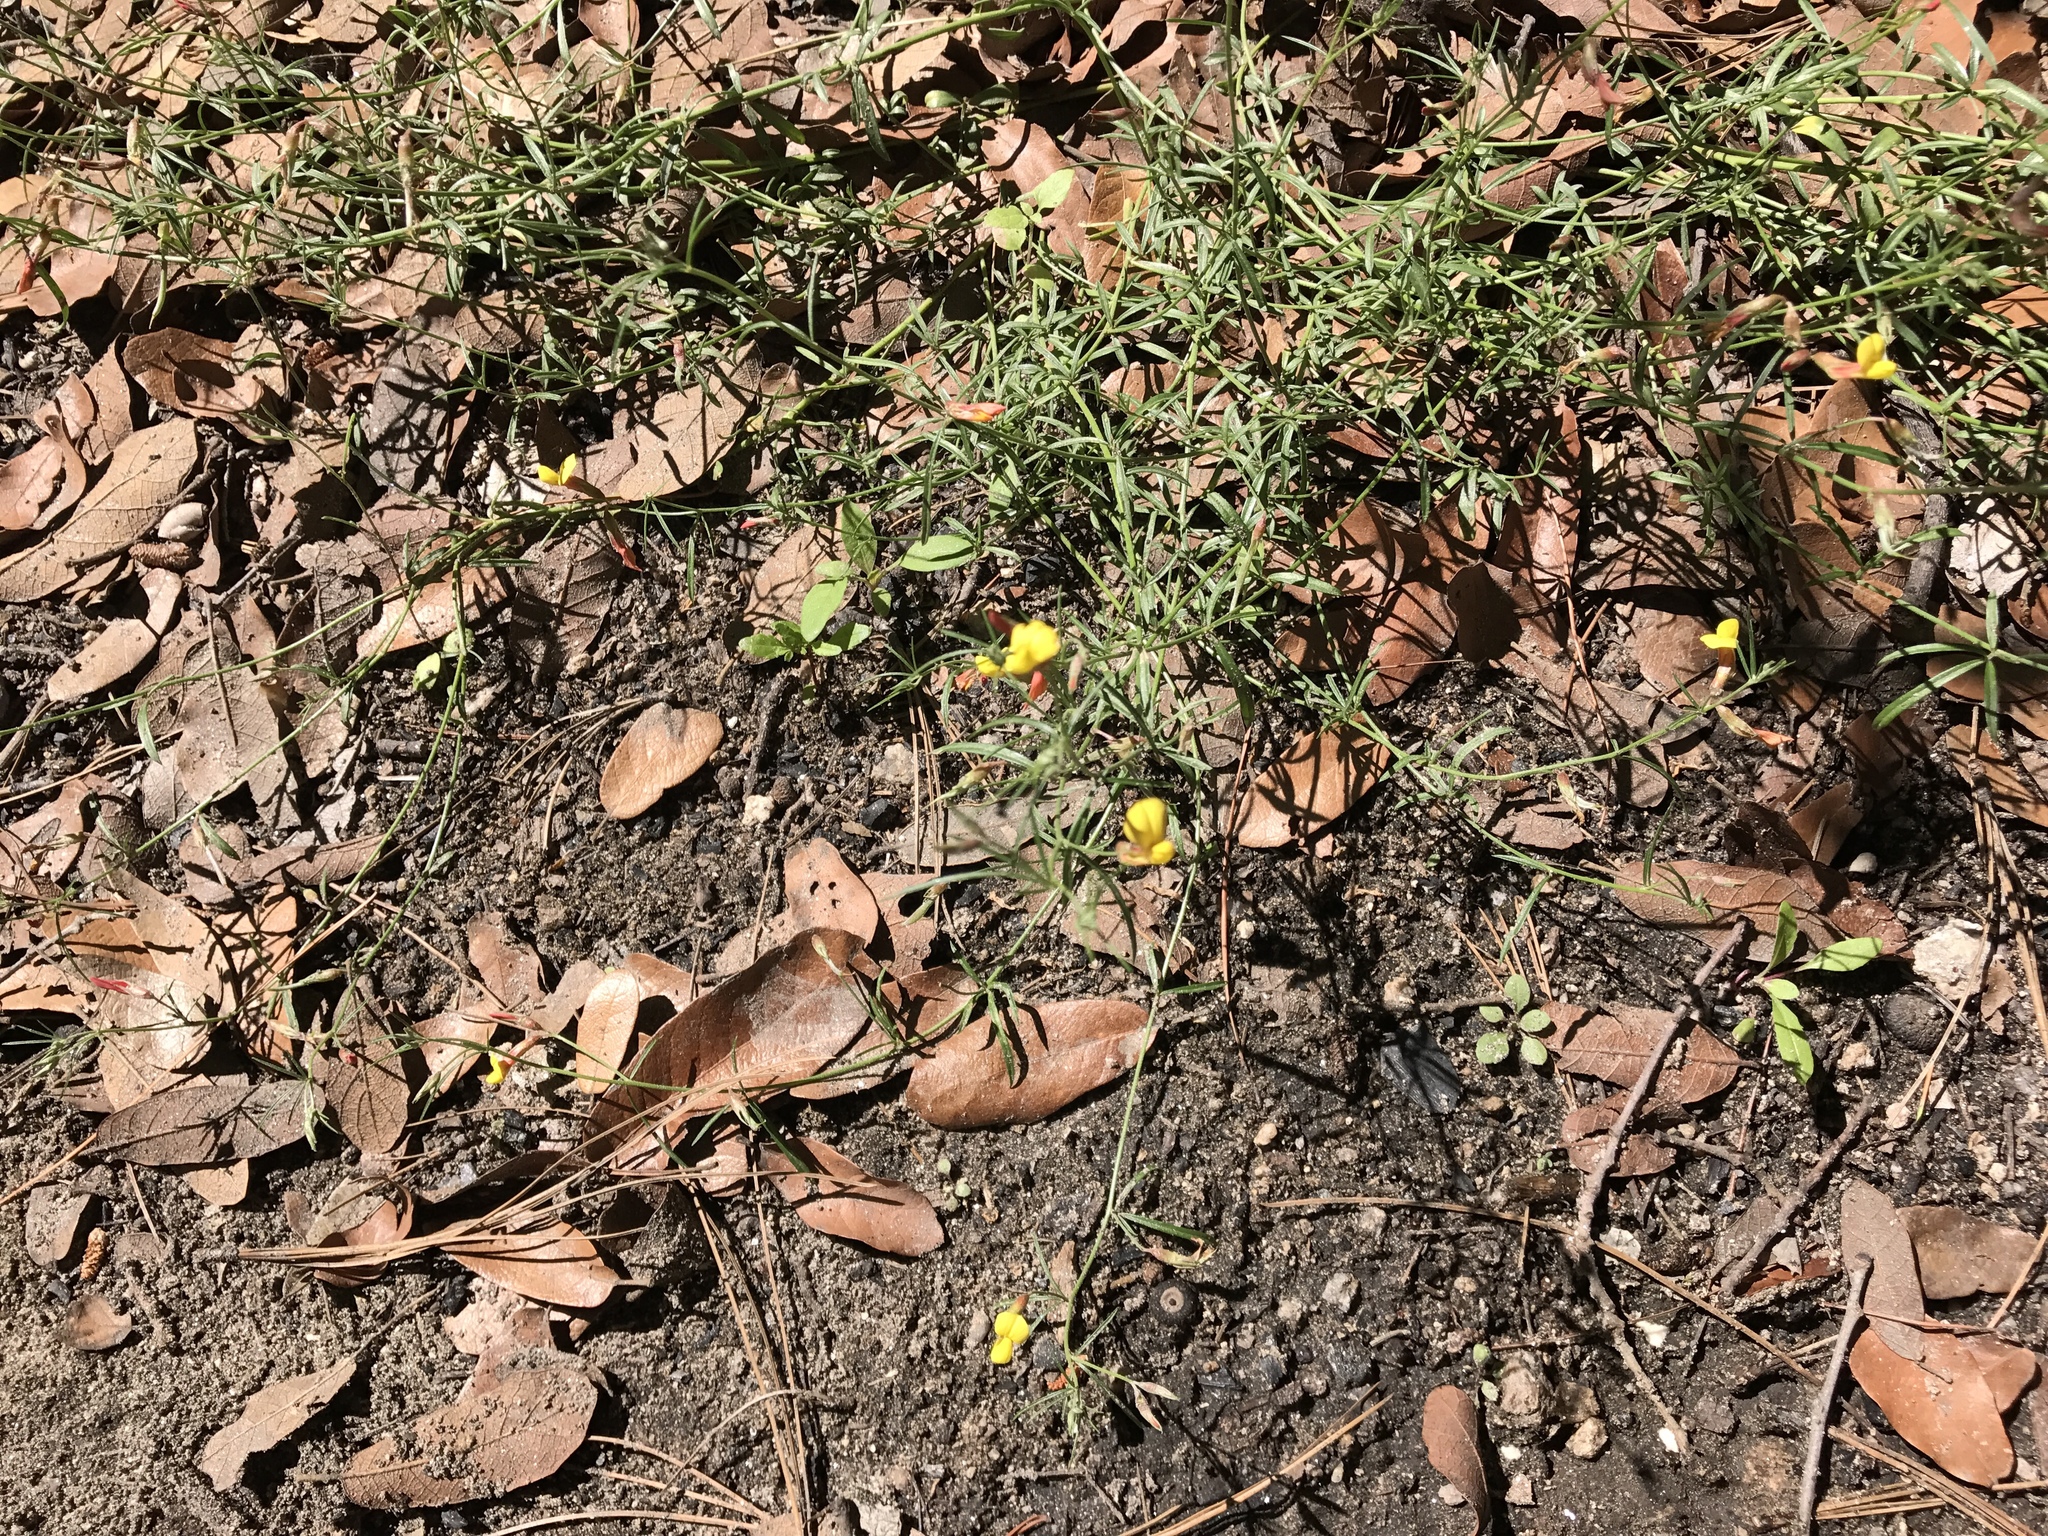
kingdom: Plantae
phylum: Tracheophyta
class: Magnoliopsida
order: Fabales
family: Fabaceae
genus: Acmispon
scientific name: Acmispon oroboides
